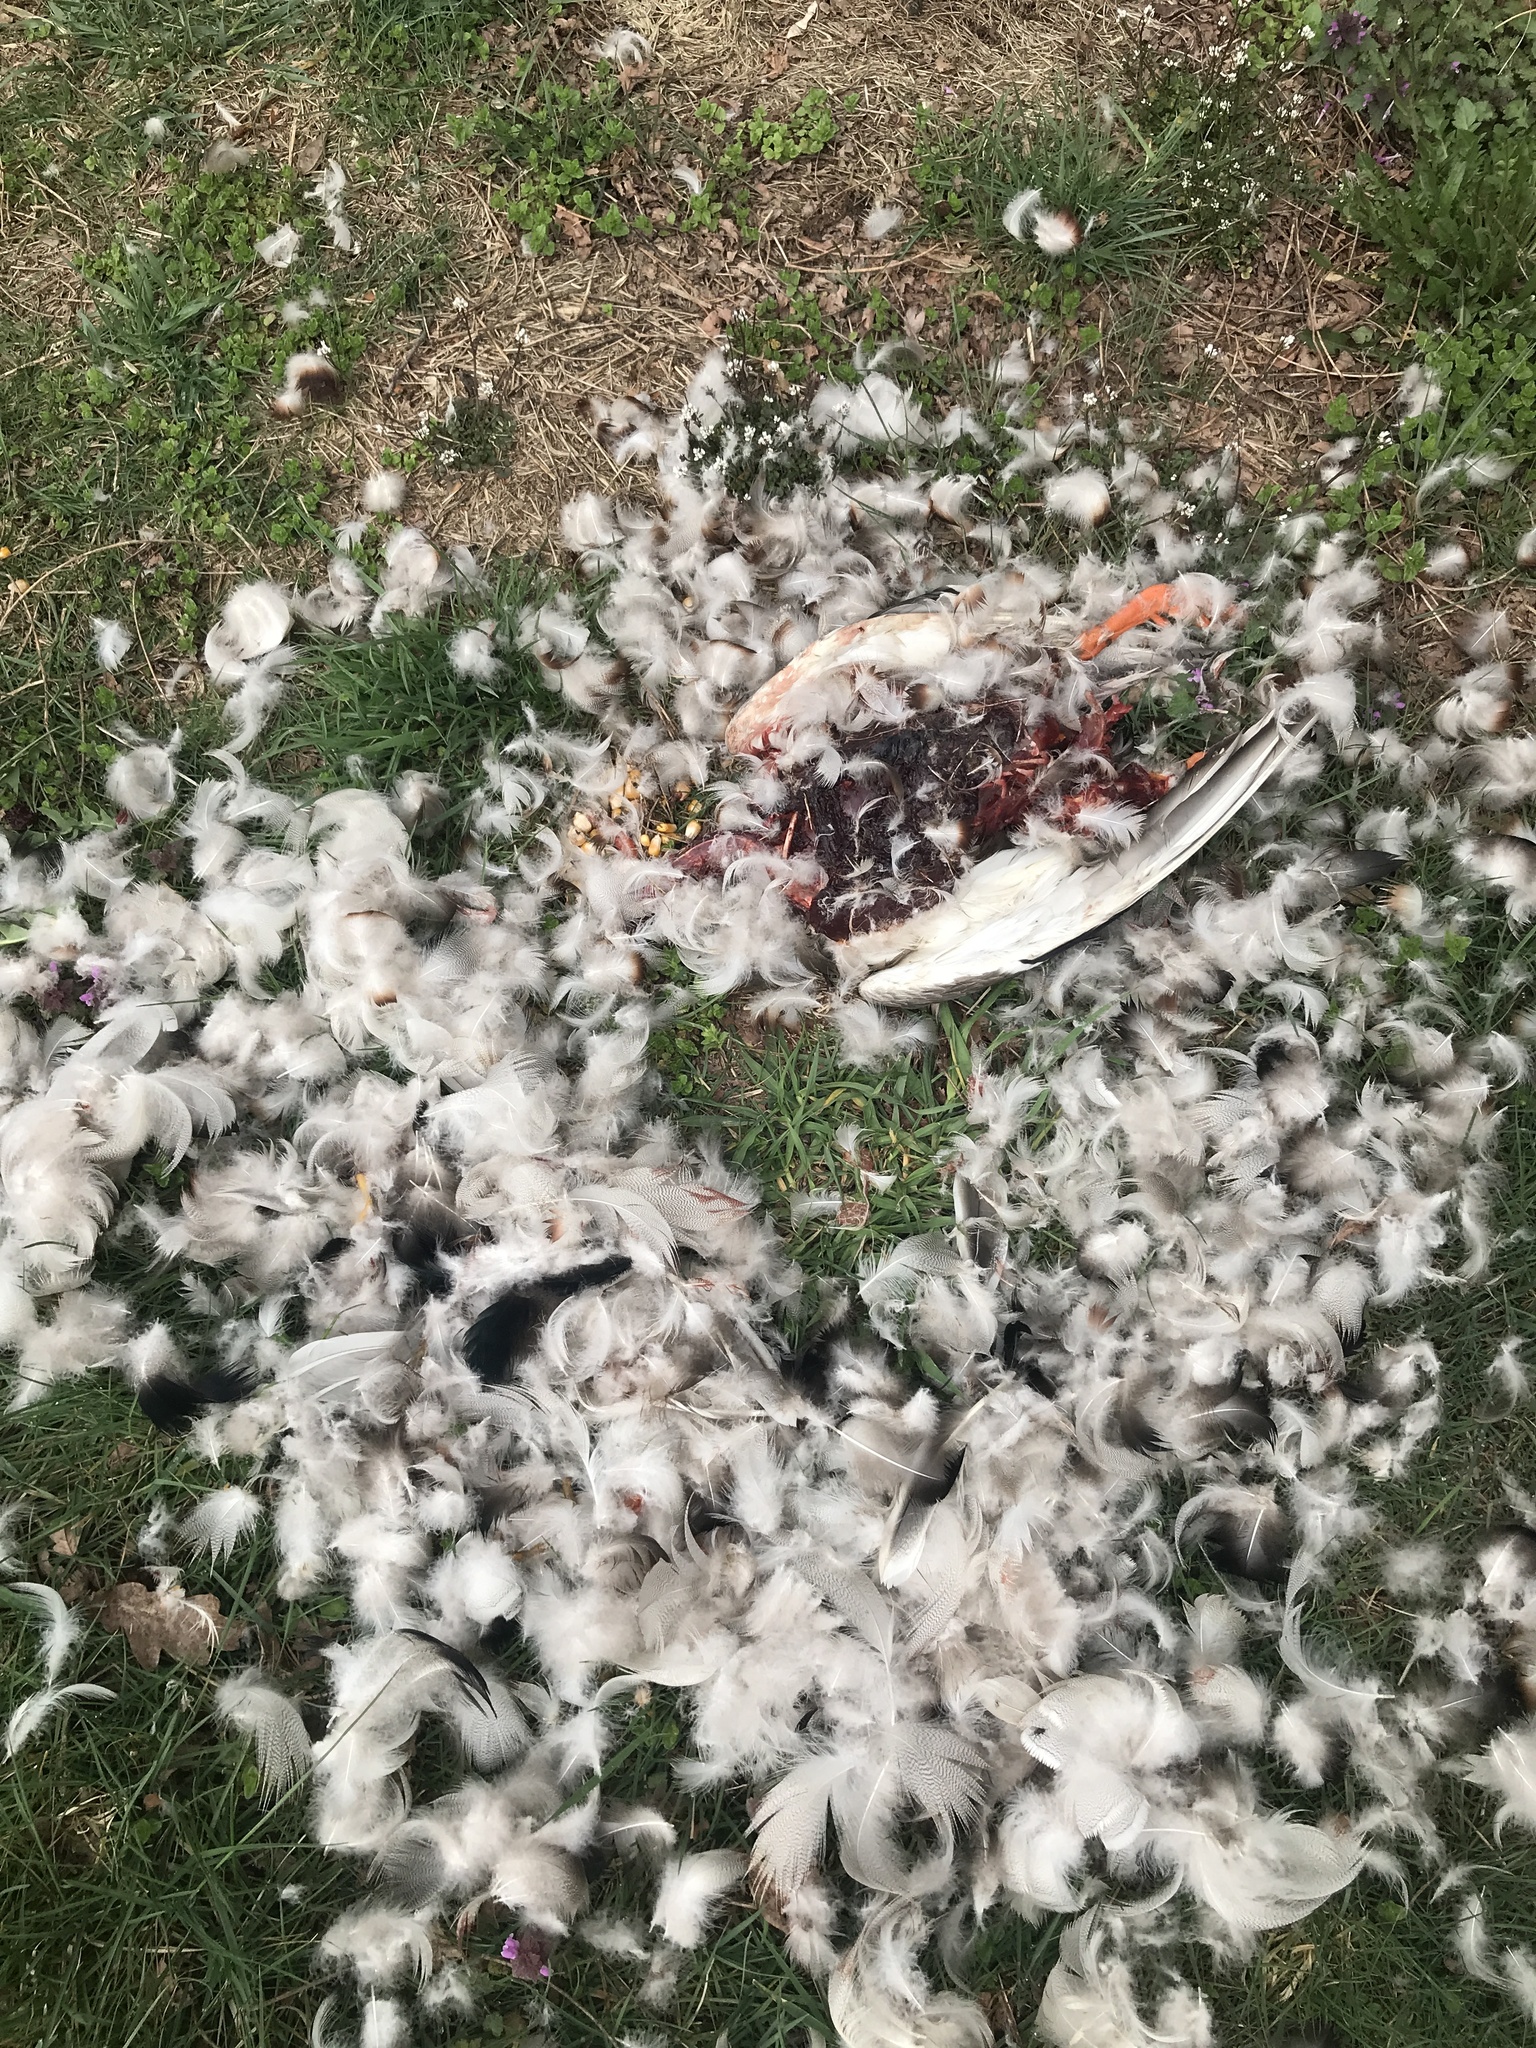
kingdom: Animalia
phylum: Chordata
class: Aves
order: Anseriformes
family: Anatidae
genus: Anas
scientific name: Anas platyrhynchos
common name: Mallard
